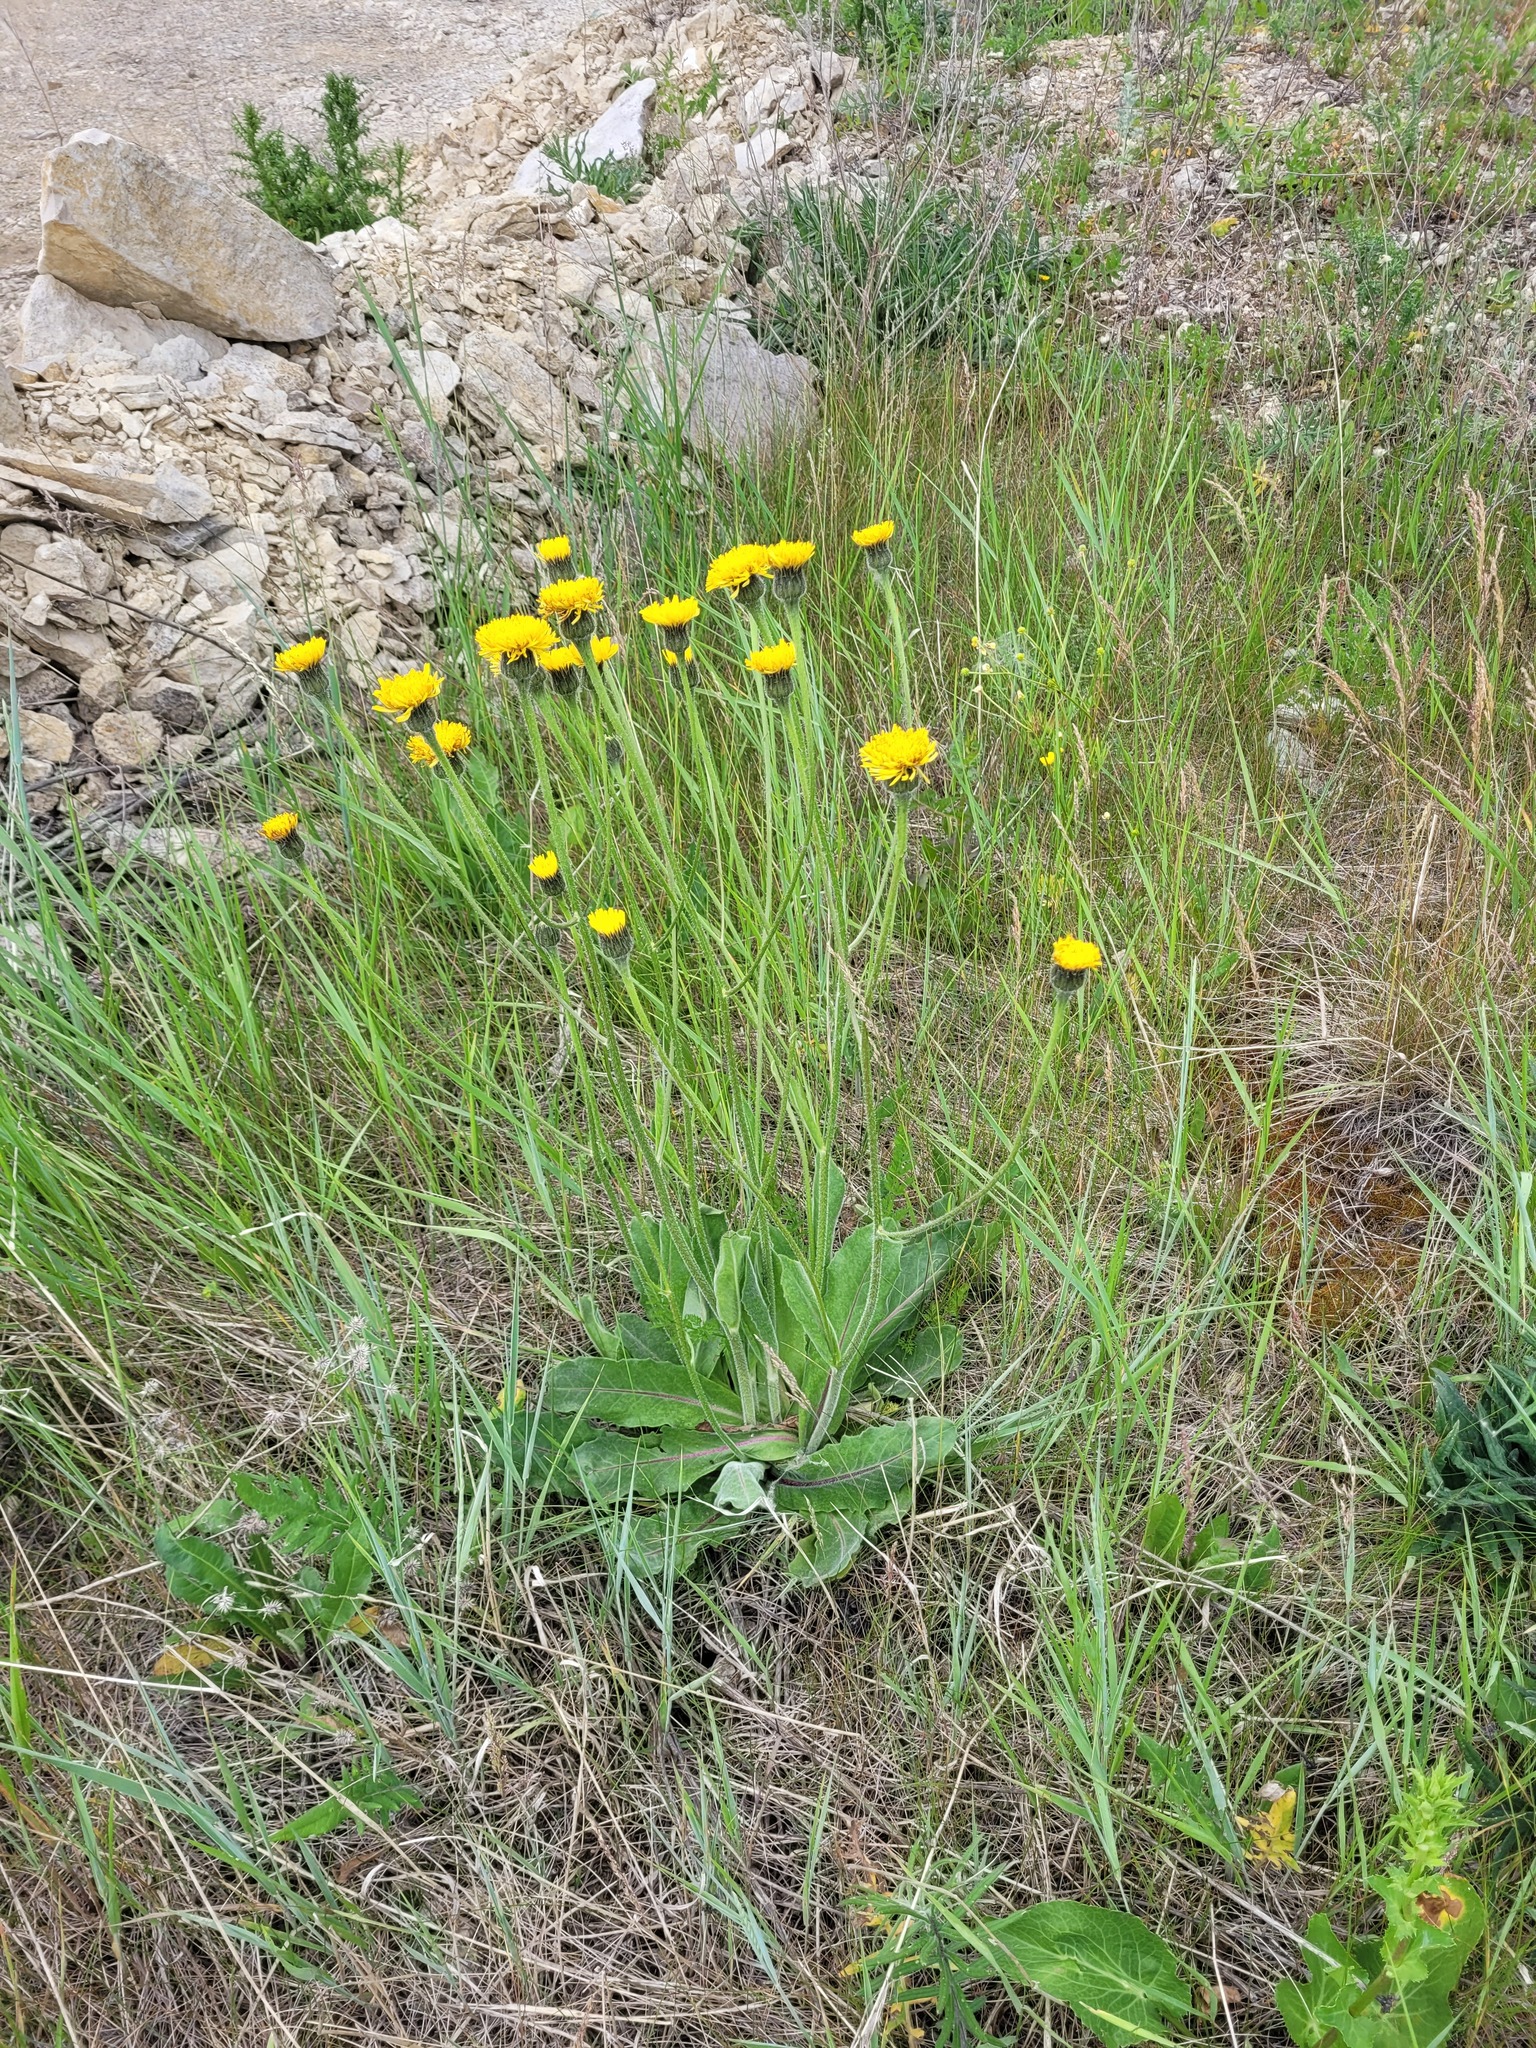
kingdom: Plantae
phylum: Tracheophyta
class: Magnoliopsida
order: Asterales
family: Asteraceae
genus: Trommsdorffia
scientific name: Trommsdorffia maculata
